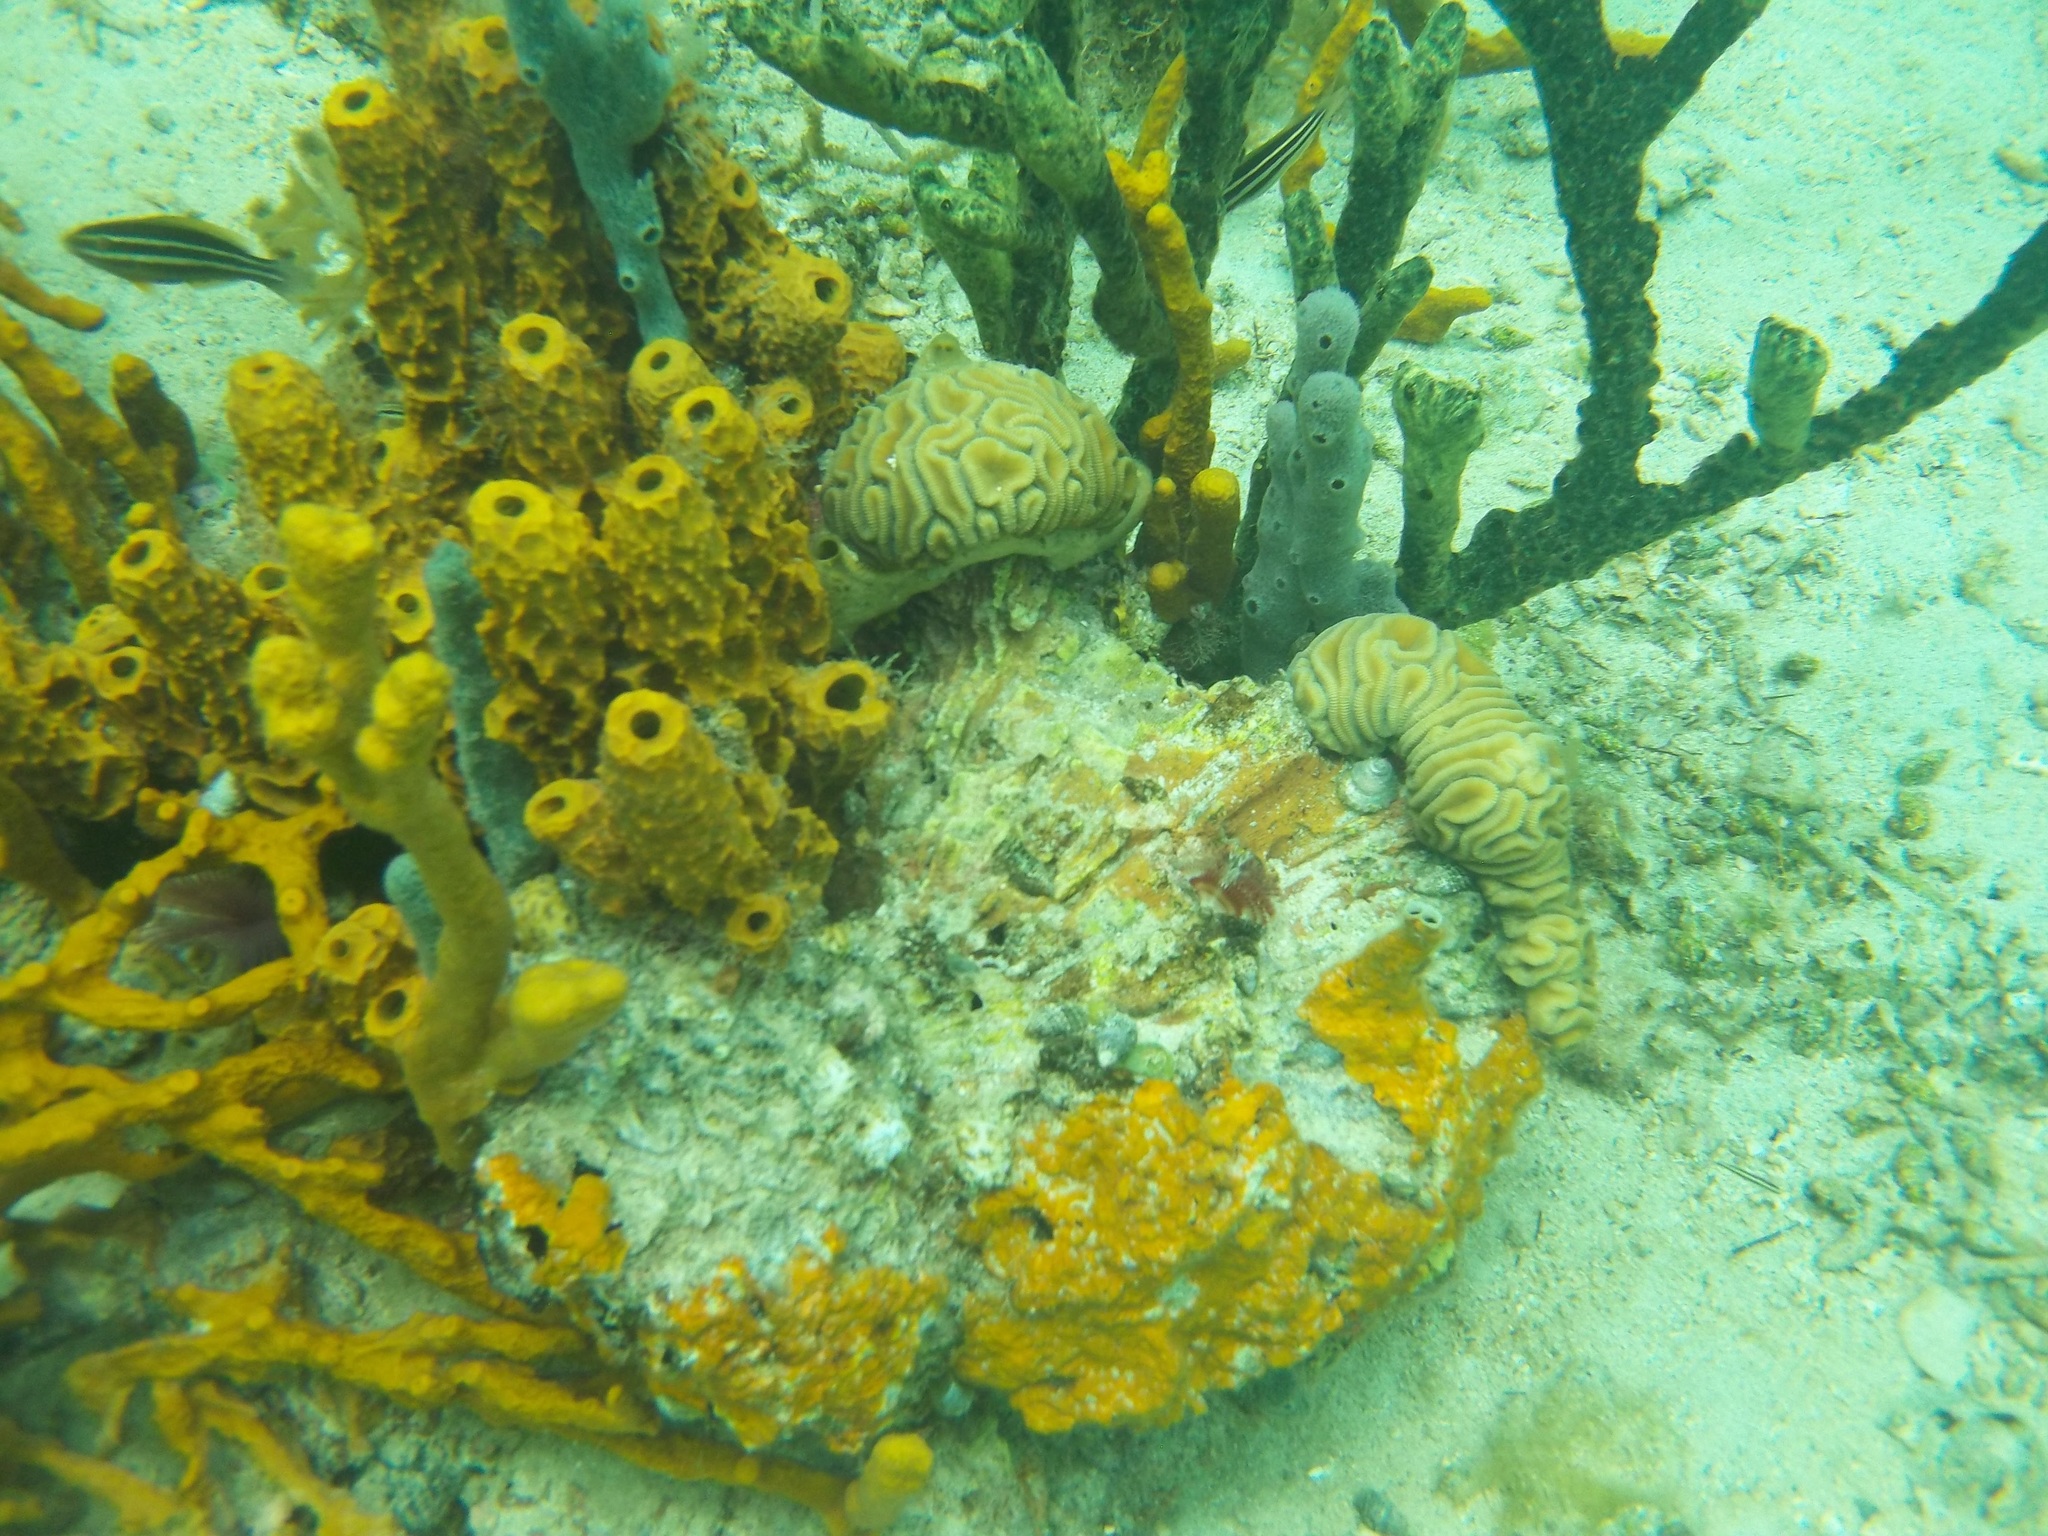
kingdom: Animalia
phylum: Cnidaria
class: Anthozoa
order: Scleractinia
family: Faviidae
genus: Diploria
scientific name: Diploria labyrinthiformis
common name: Grooved brain coral
